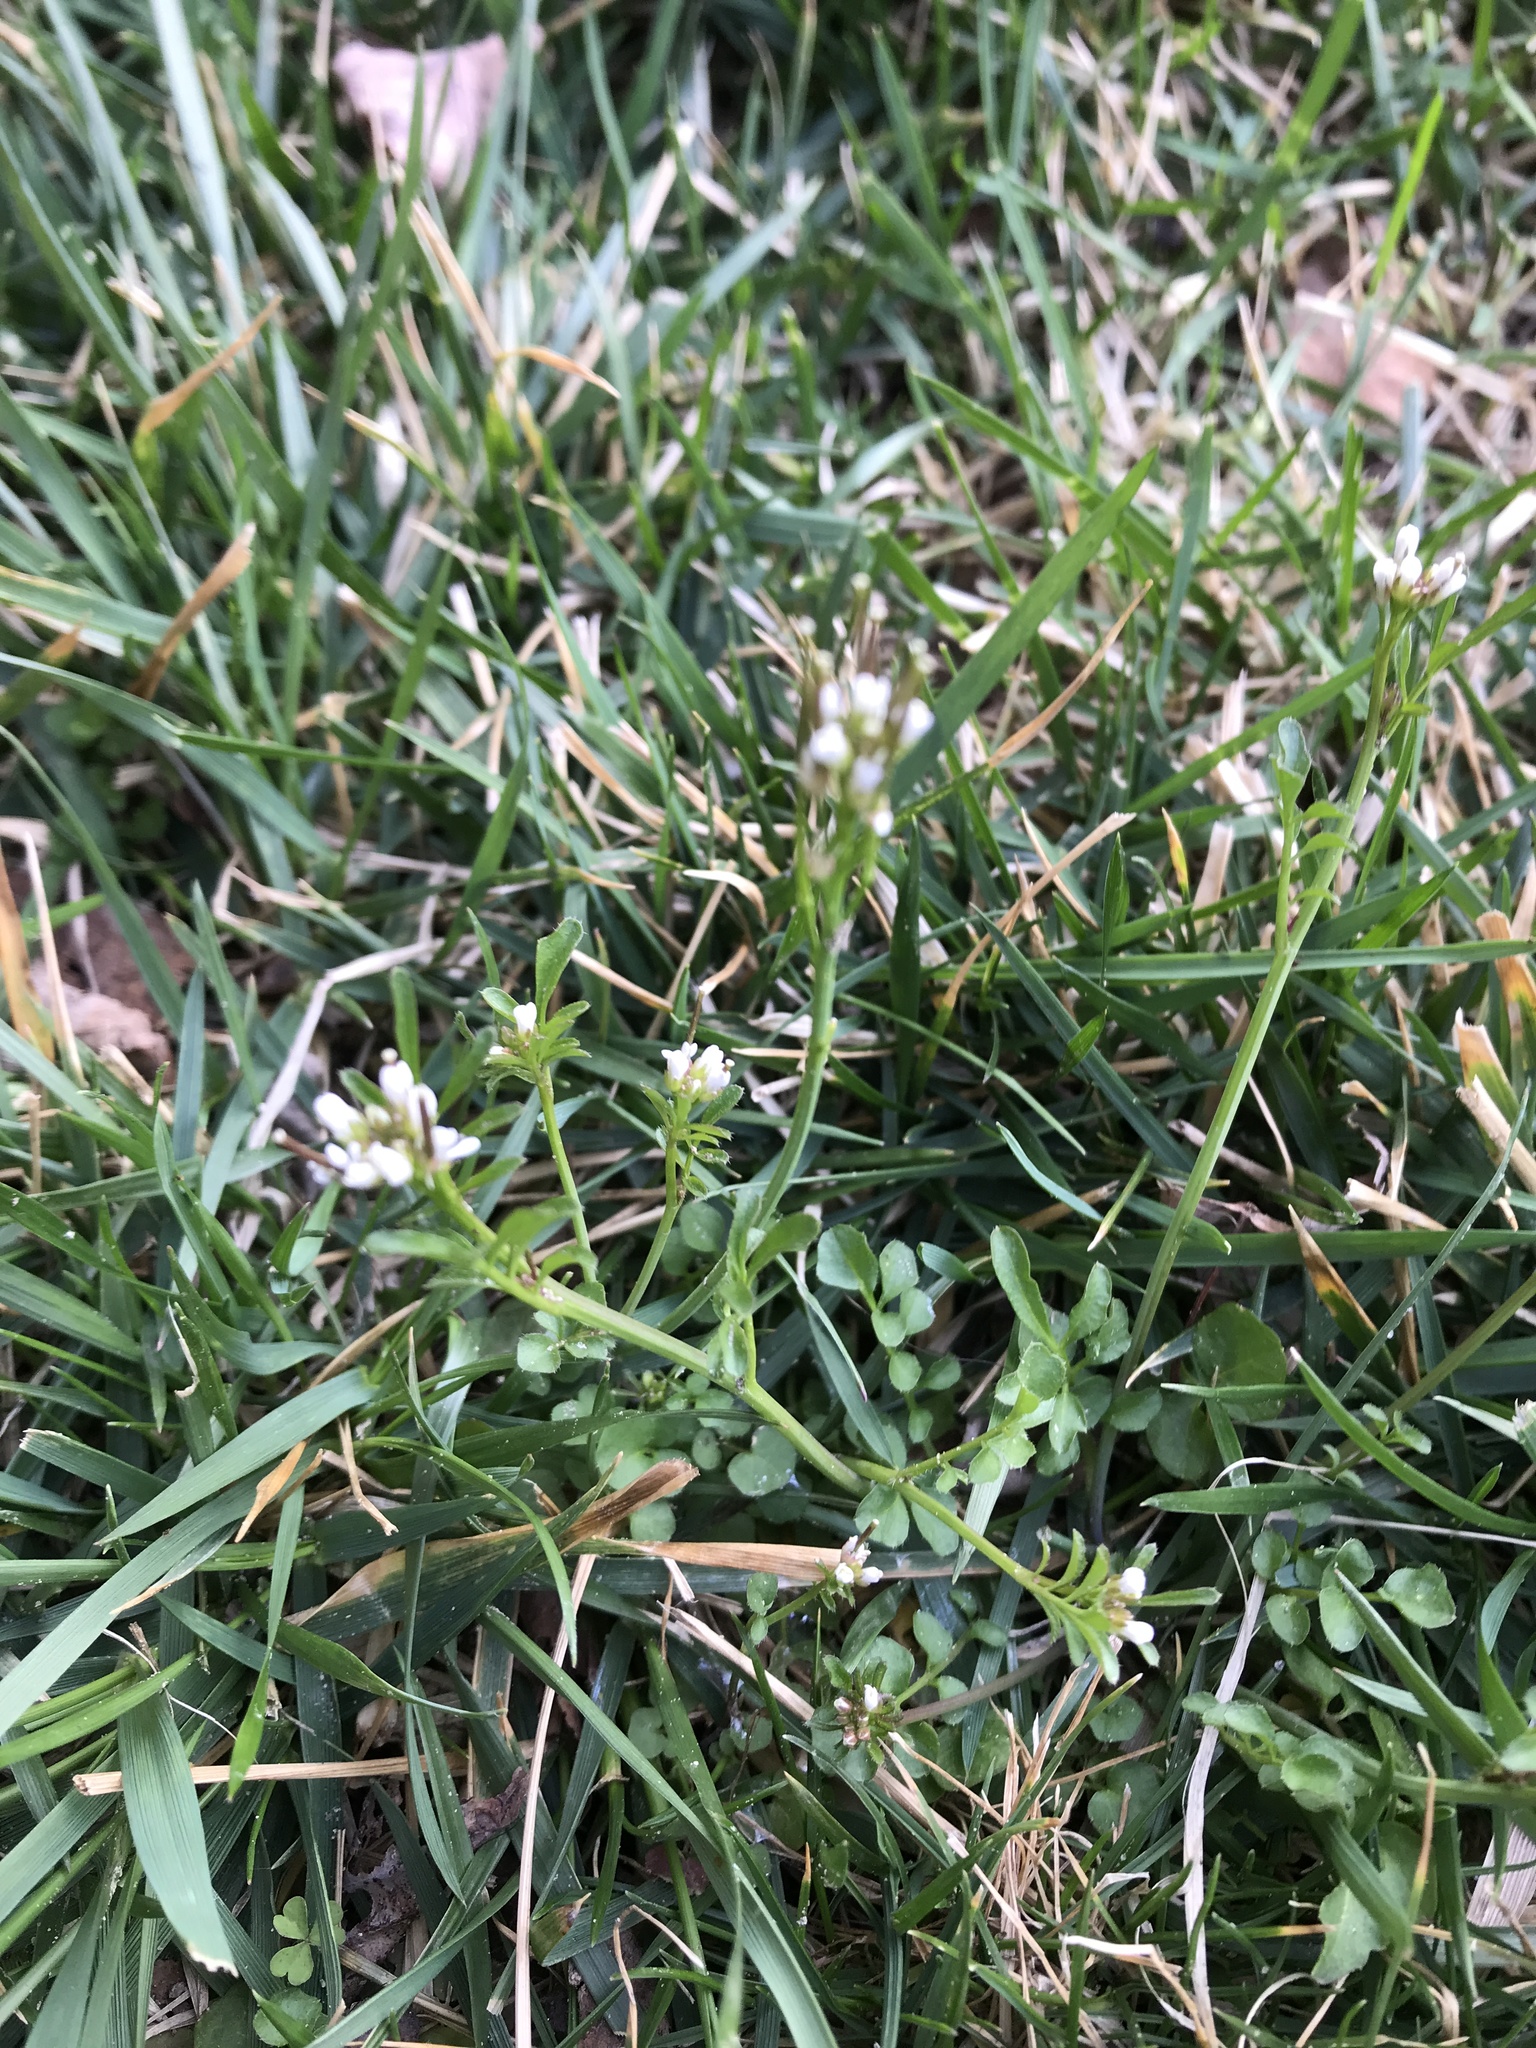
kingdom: Plantae
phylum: Tracheophyta
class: Magnoliopsida
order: Brassicales
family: Brassicaceae
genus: Cardamine
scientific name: Cardamine hirsuta
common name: Hairy bittercress
